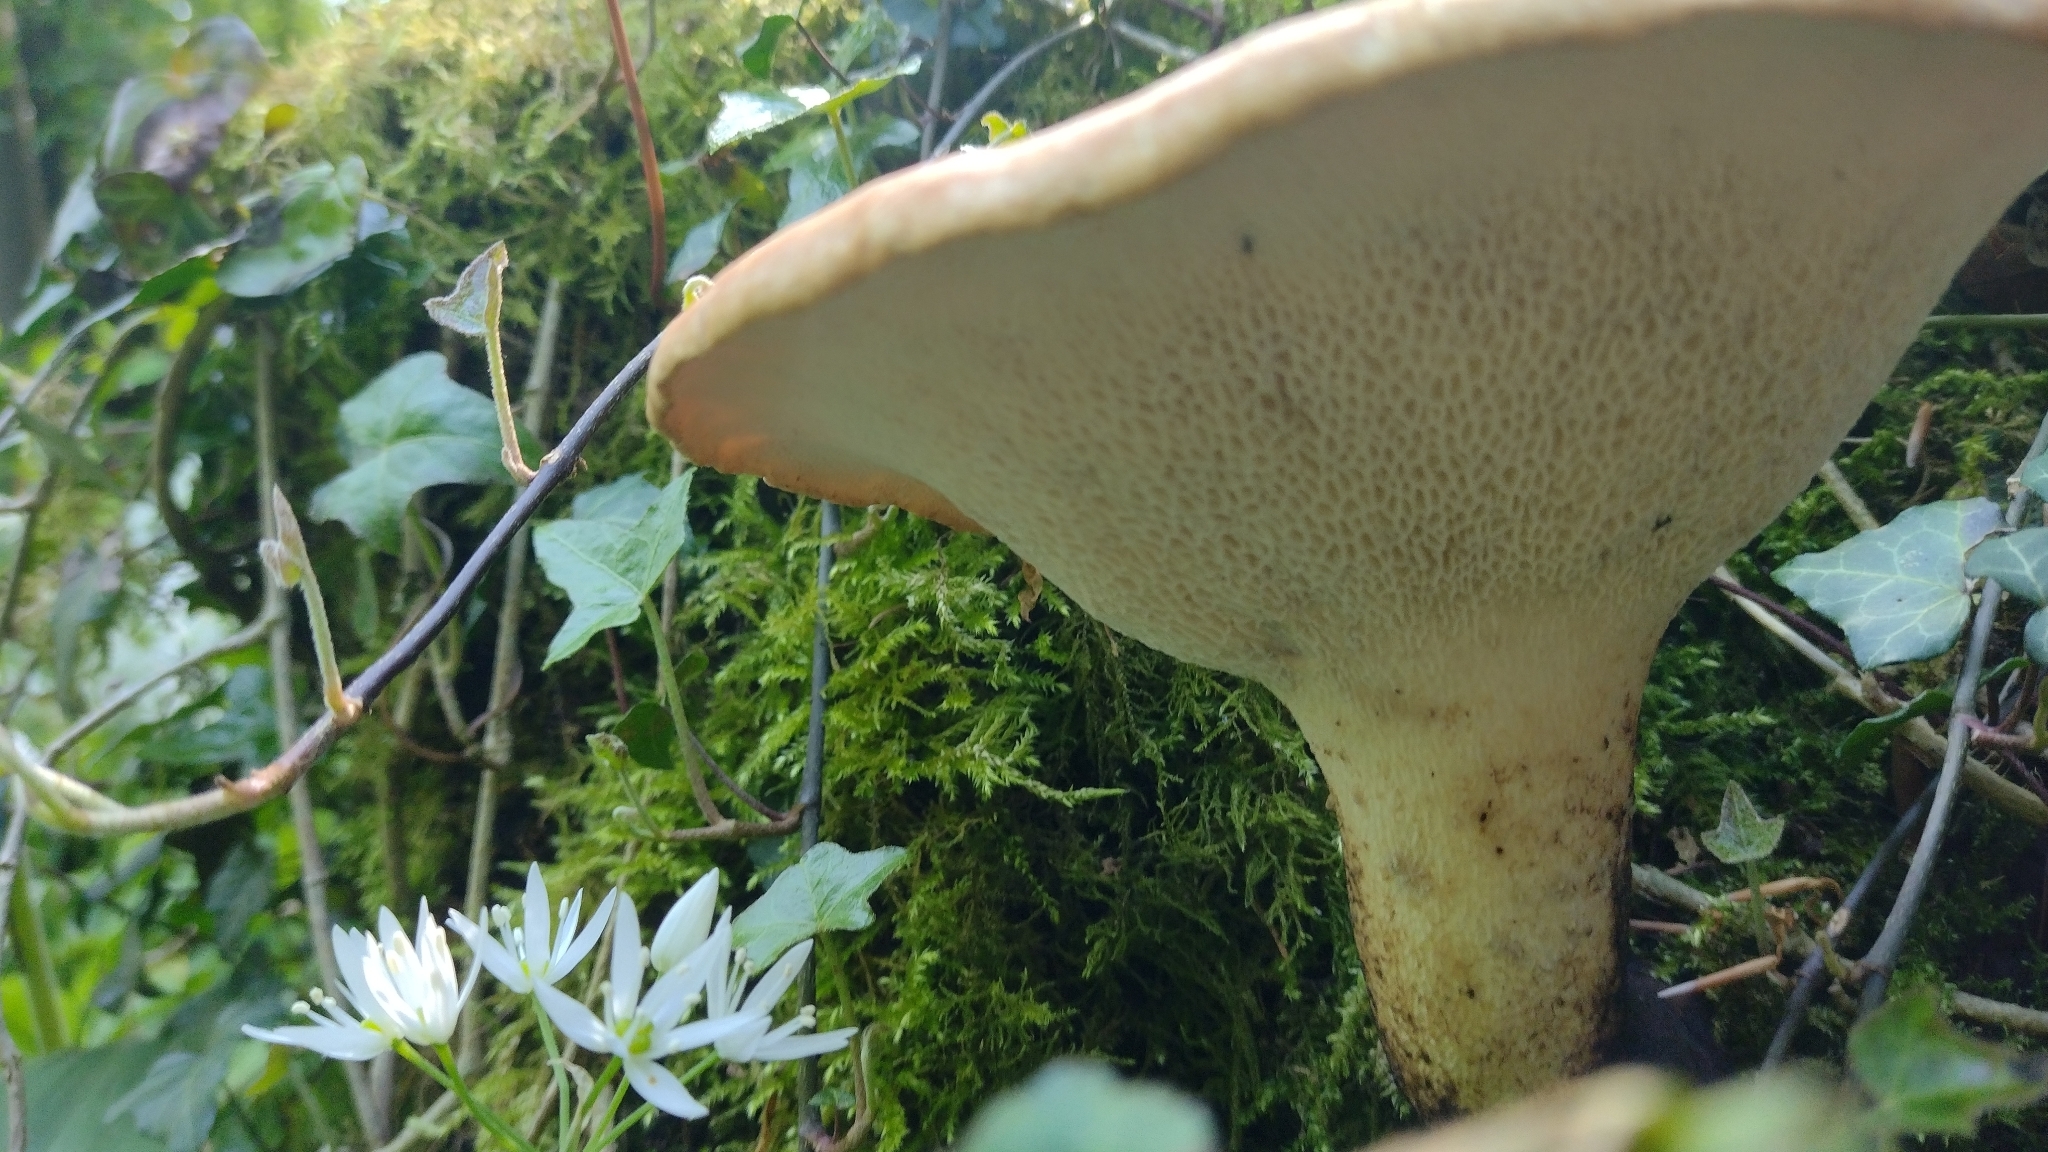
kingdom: Fungi
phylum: Basidiomycota
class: Agaricomycetes
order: Polyporales
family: Polyporaceae
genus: Cerioporus
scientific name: Cerioporus squamosus
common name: Dryad's saddle
